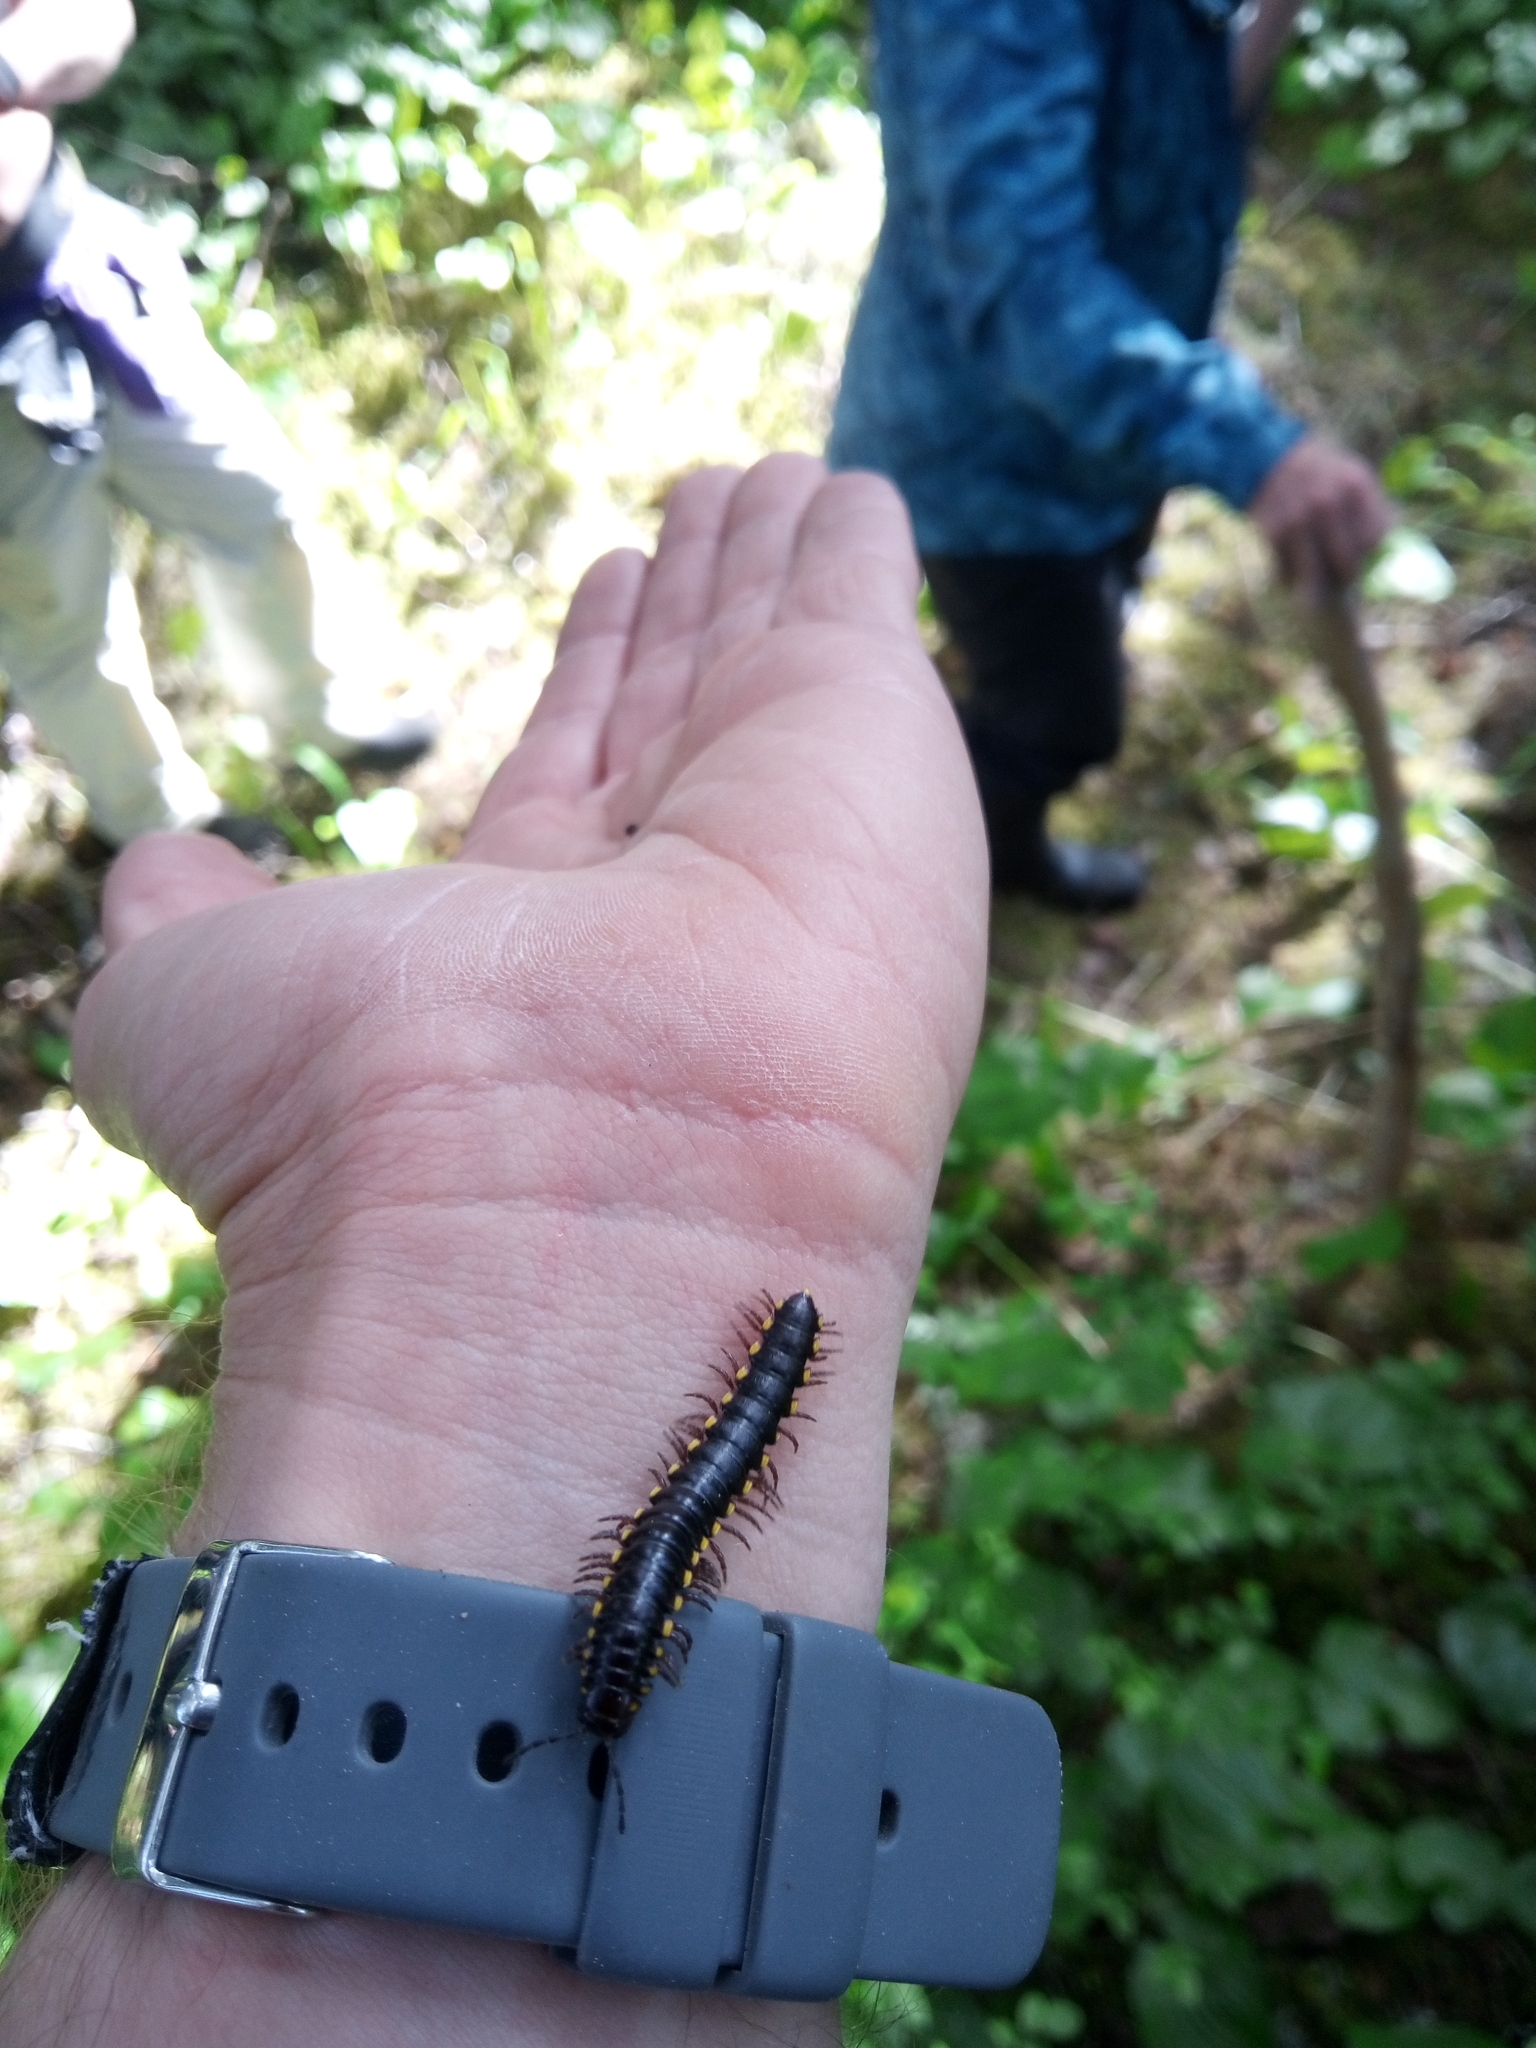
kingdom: Animalia
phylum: Arthropoda
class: Diplopoda
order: Polydesmida
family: Xystodesmidae
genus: Harpaphe
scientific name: Harpaphe haydeniana
